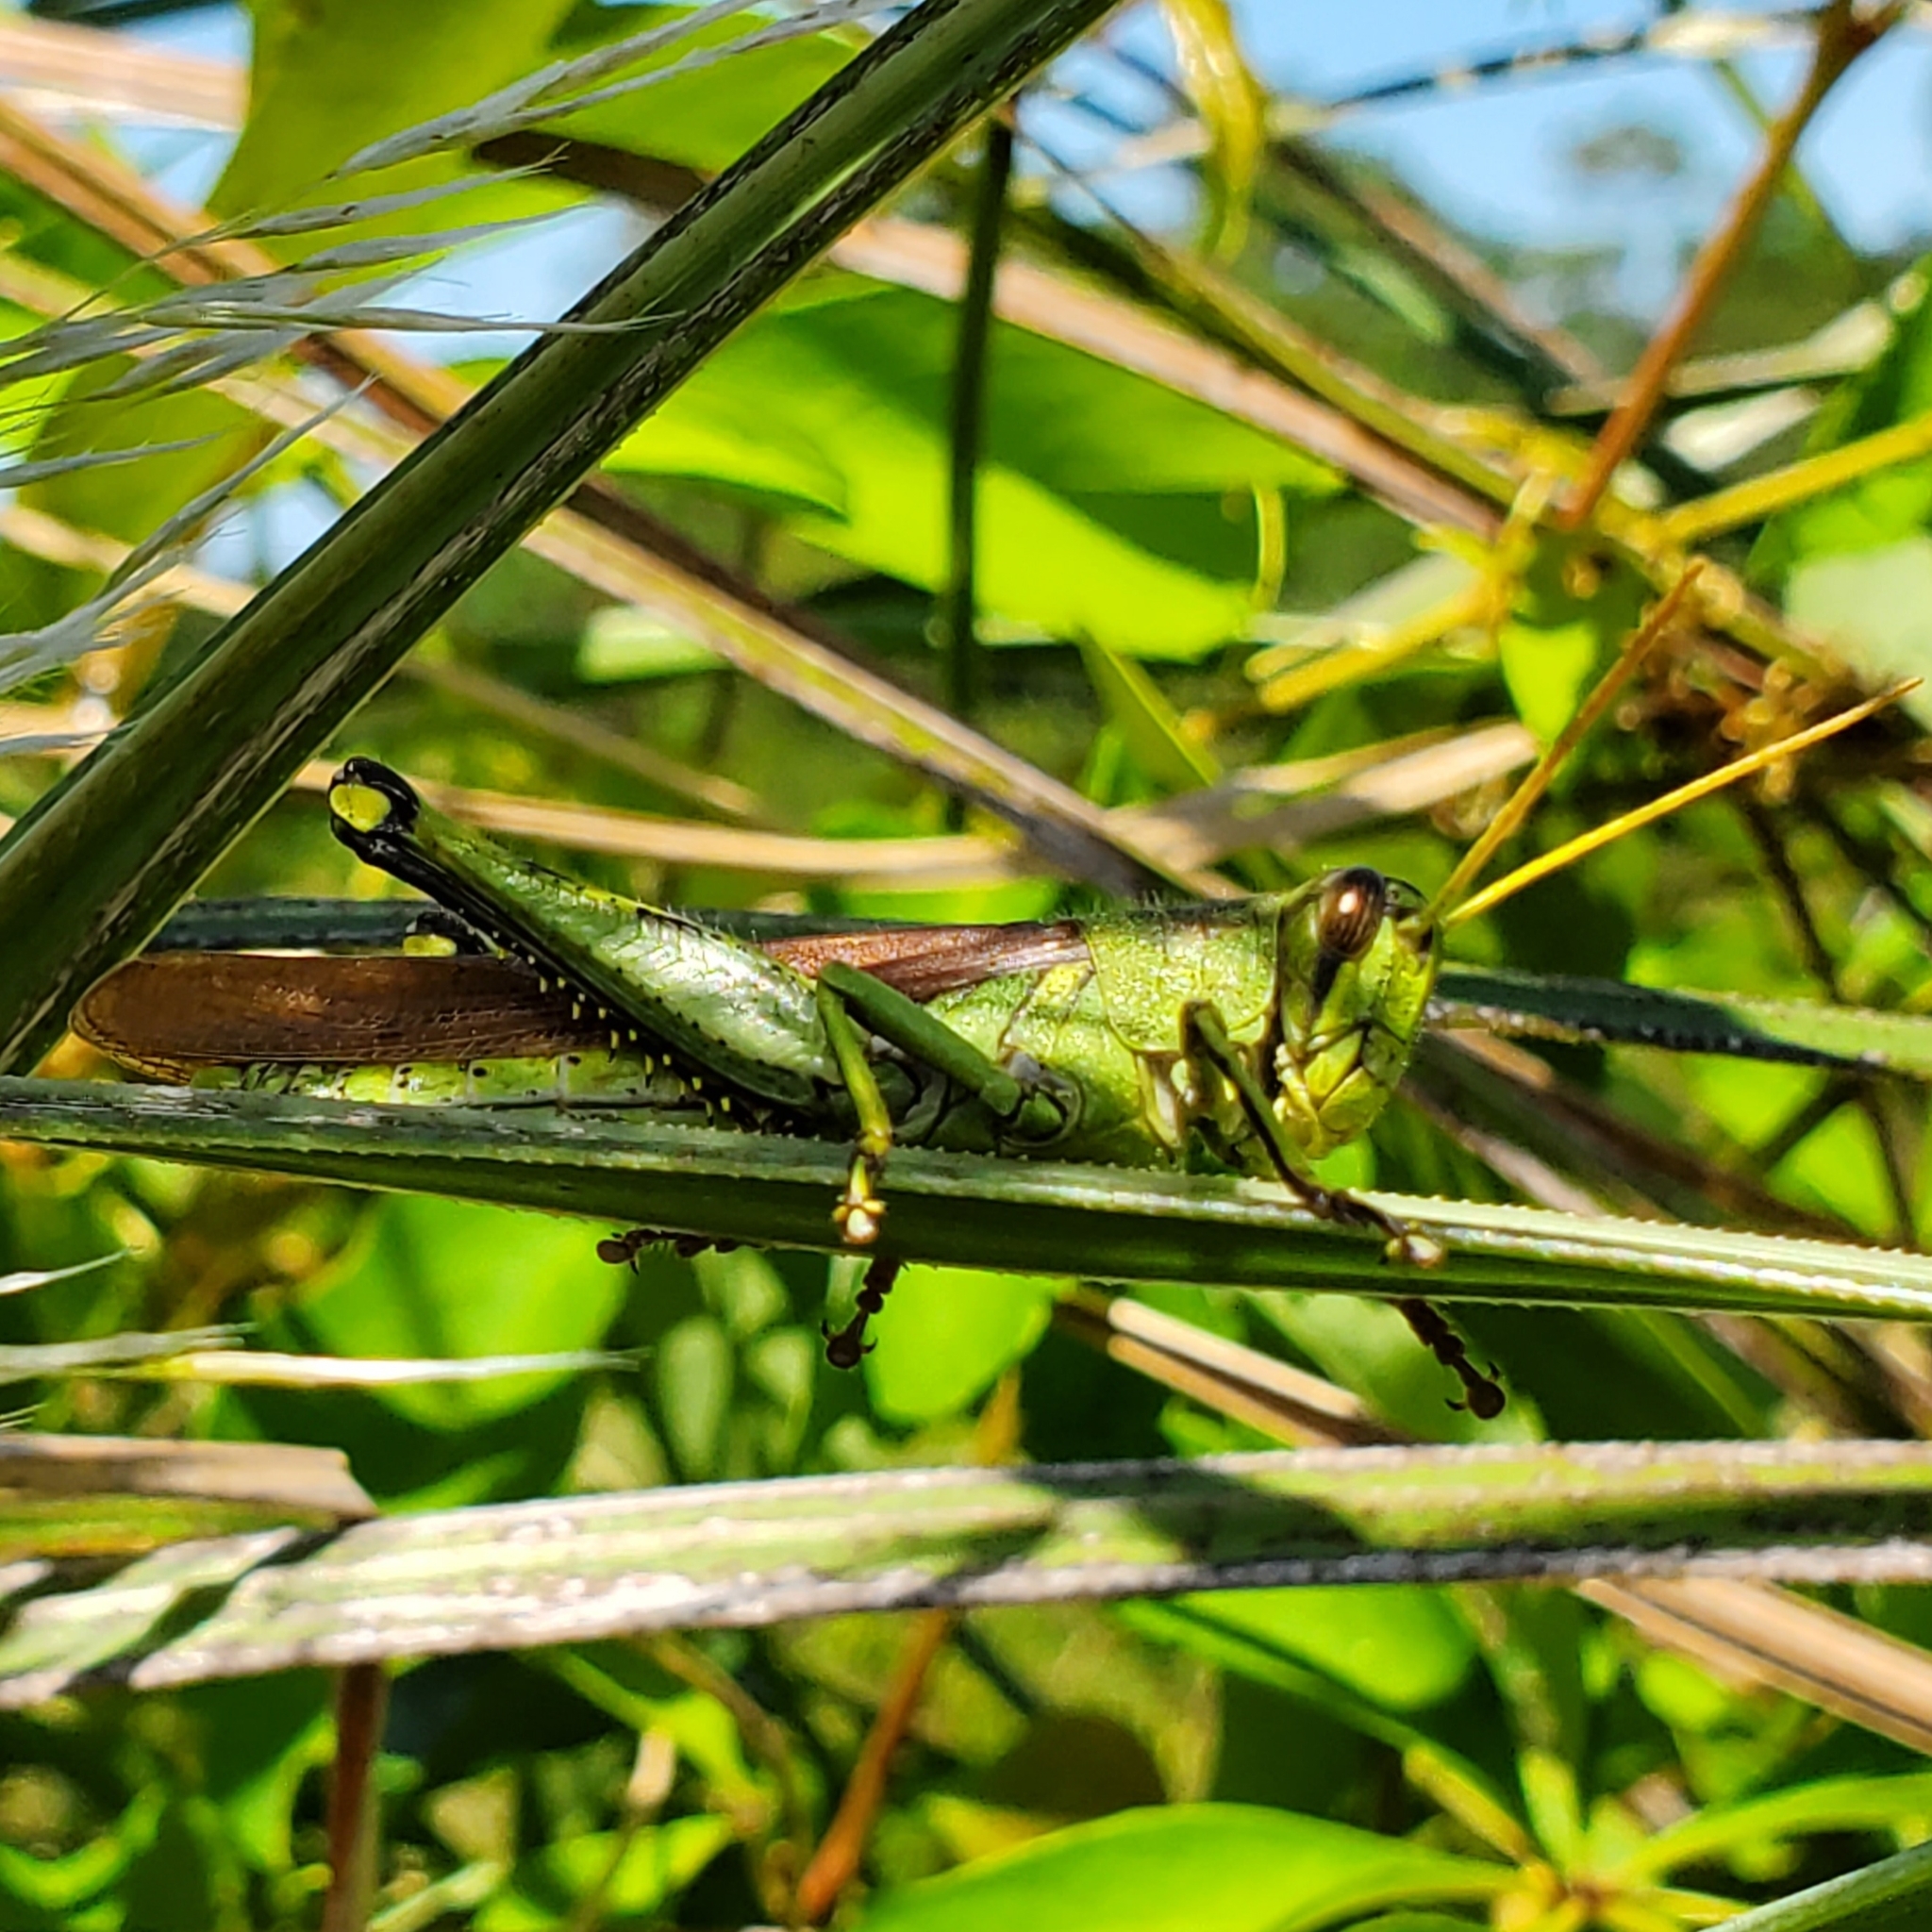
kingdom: Animalia
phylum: Arthropoda
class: Insecta
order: Orthoptera
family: Acrididae
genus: Schistocerca
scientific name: Schistocerca obscura
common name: Obscure bird grasshopper
